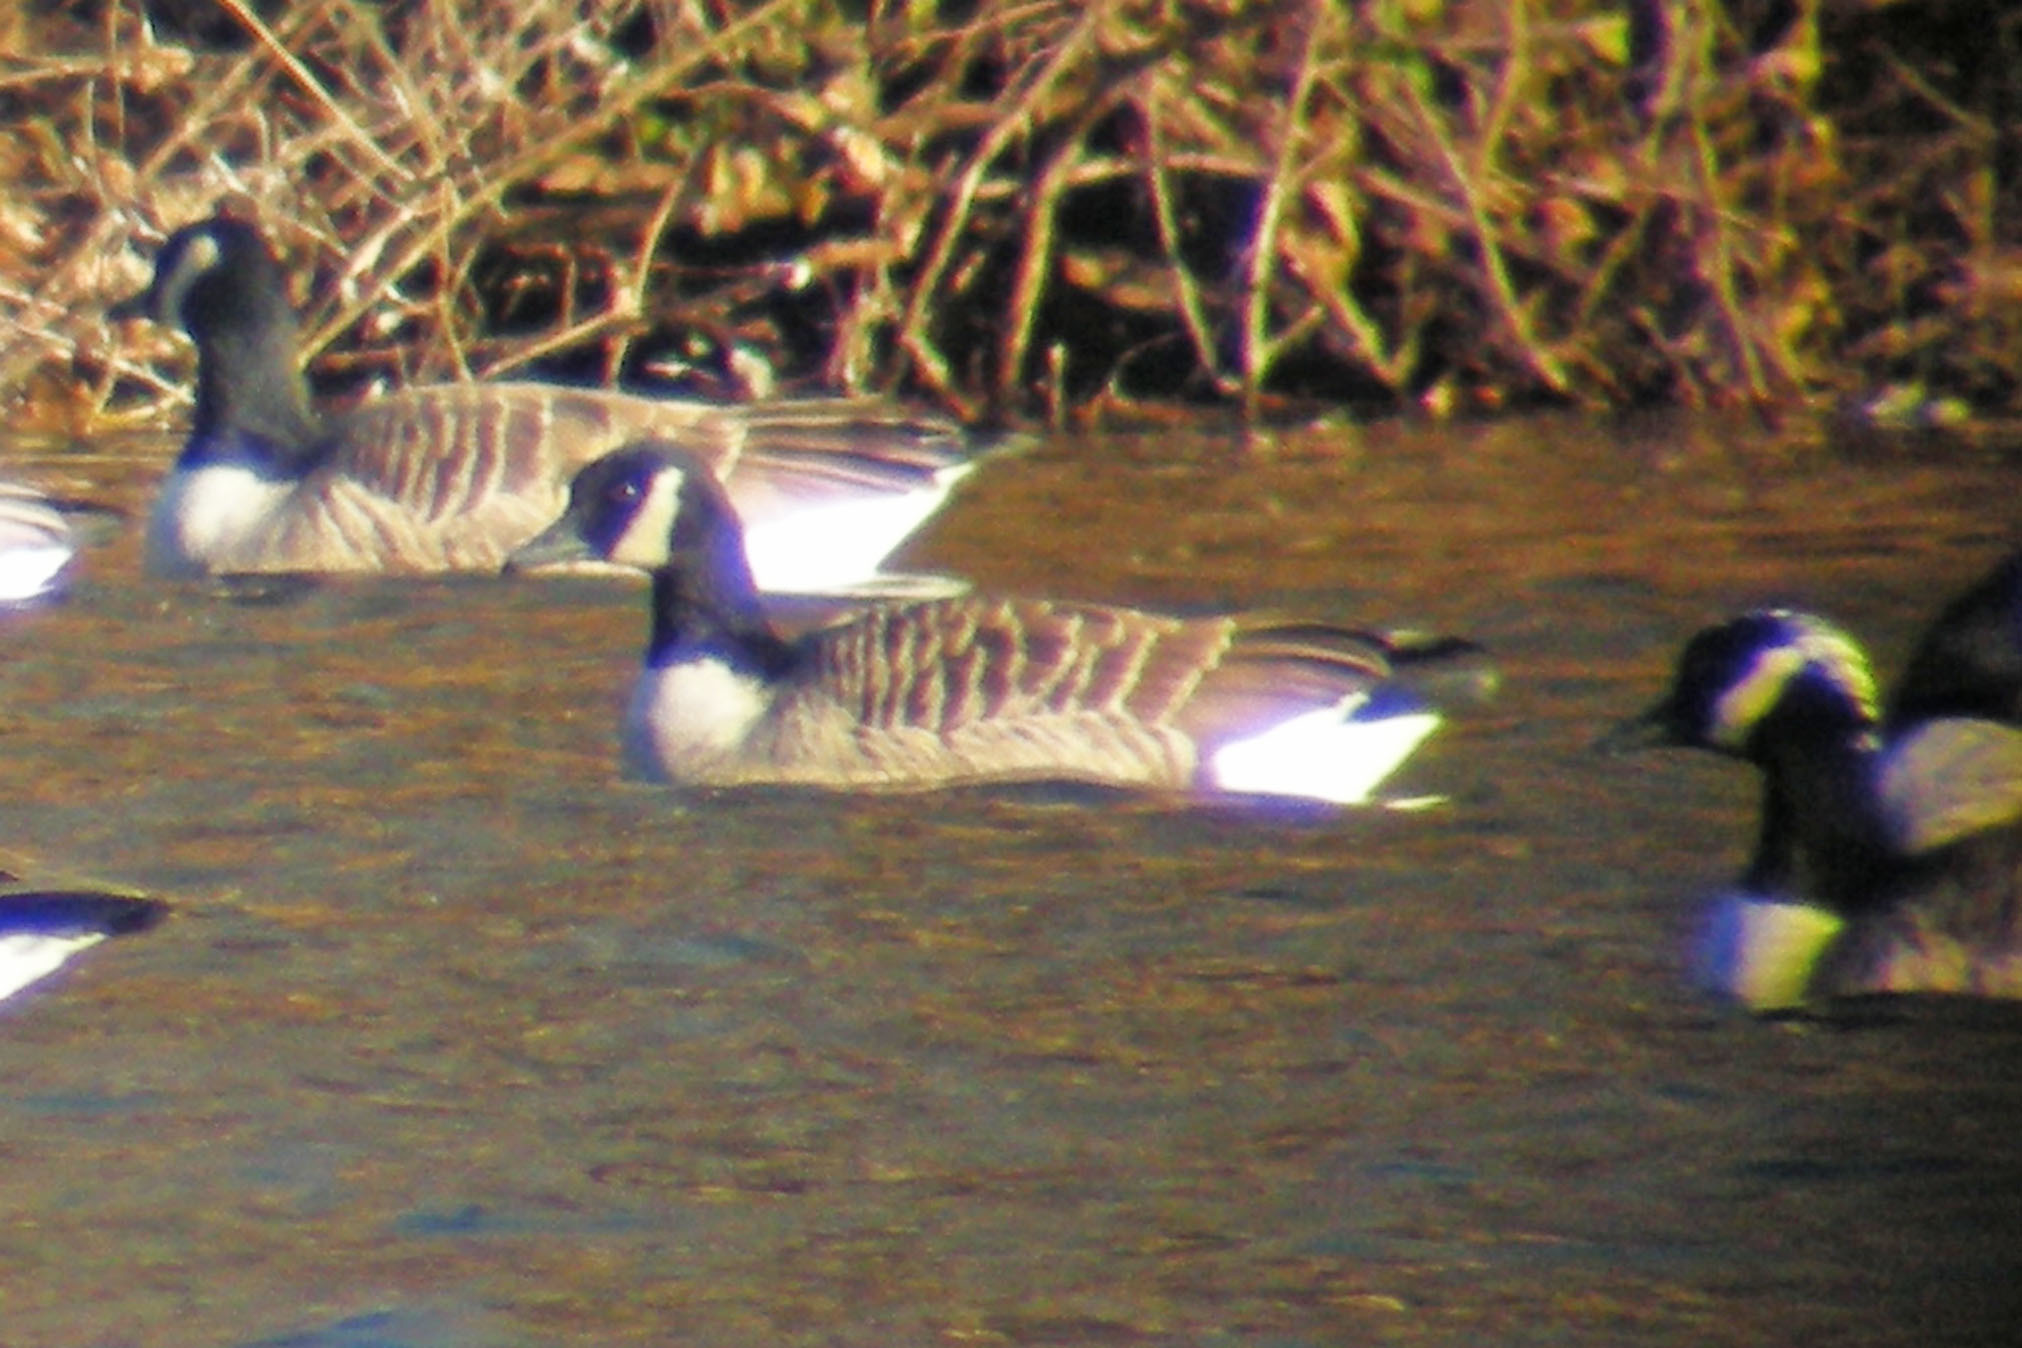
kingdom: Animalia
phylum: Chordata
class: Aves
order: Anseriformes
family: Anatidae
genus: Branta
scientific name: Branta canadensis
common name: Canada goose
